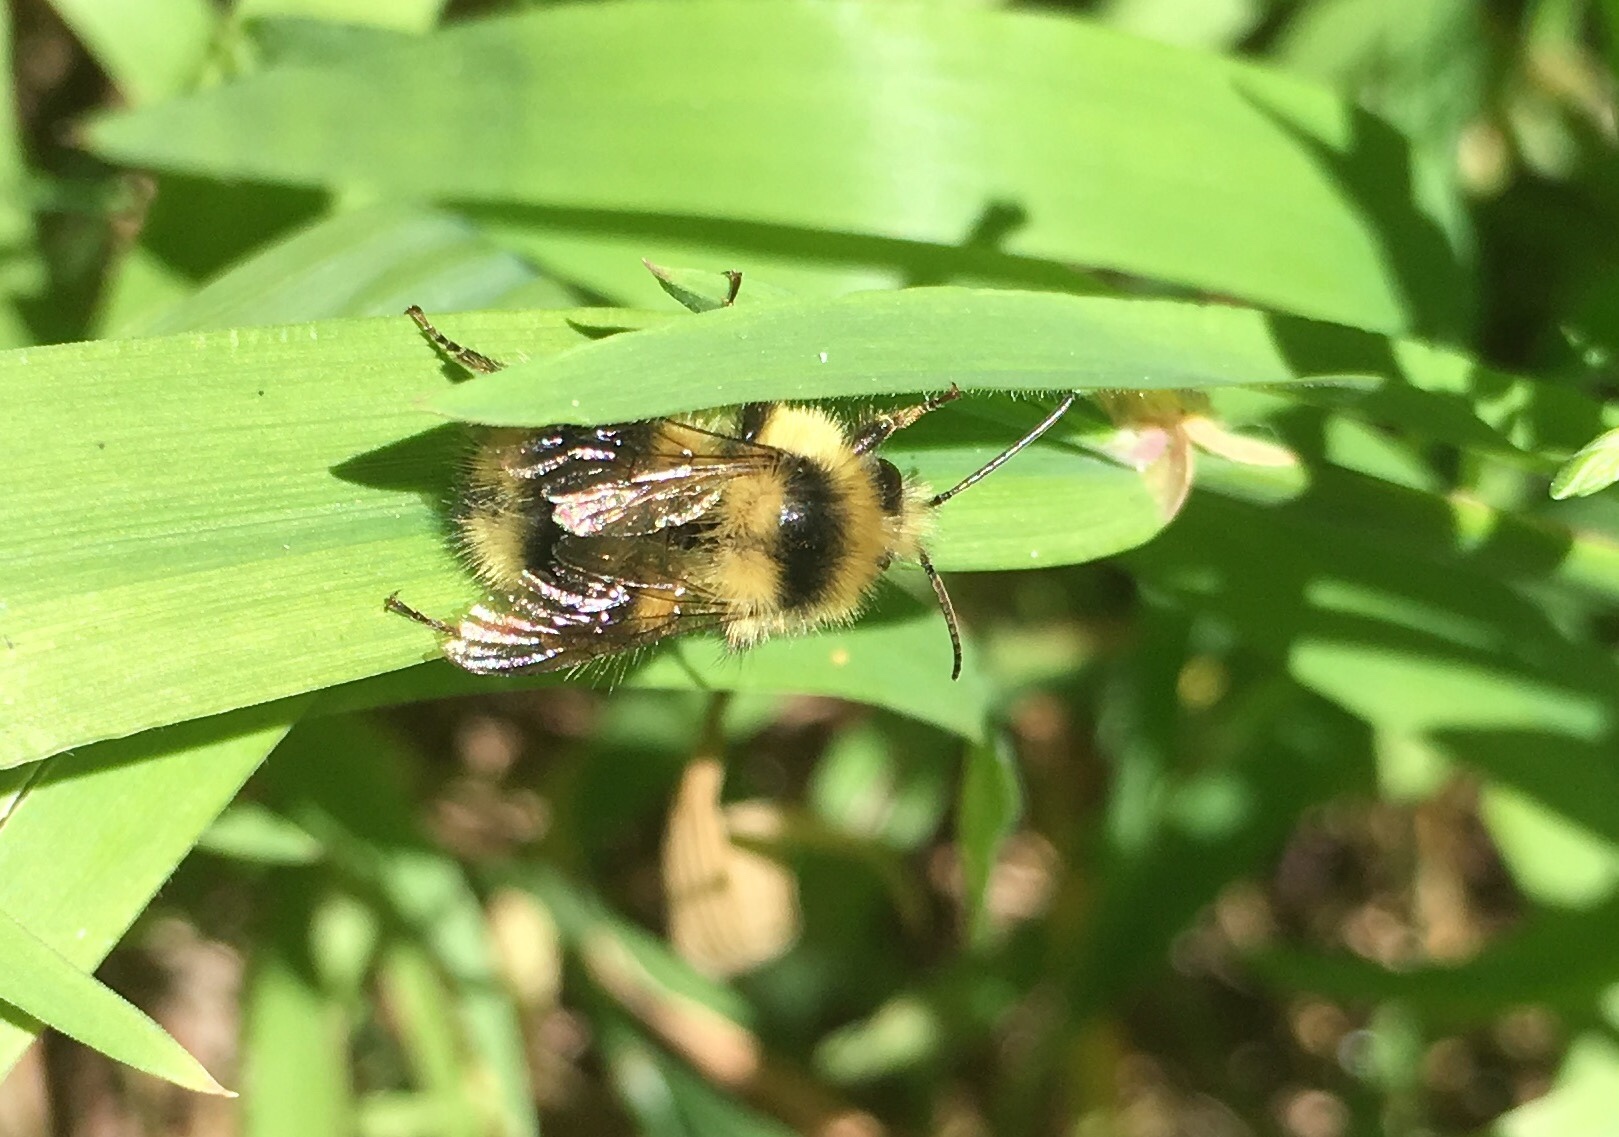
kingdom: Animalia
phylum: Arthropoda
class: Insecta
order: Hymenoptera
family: Apidae
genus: Bombus
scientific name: Bombus melanopygus
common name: Black tail bumble bee
